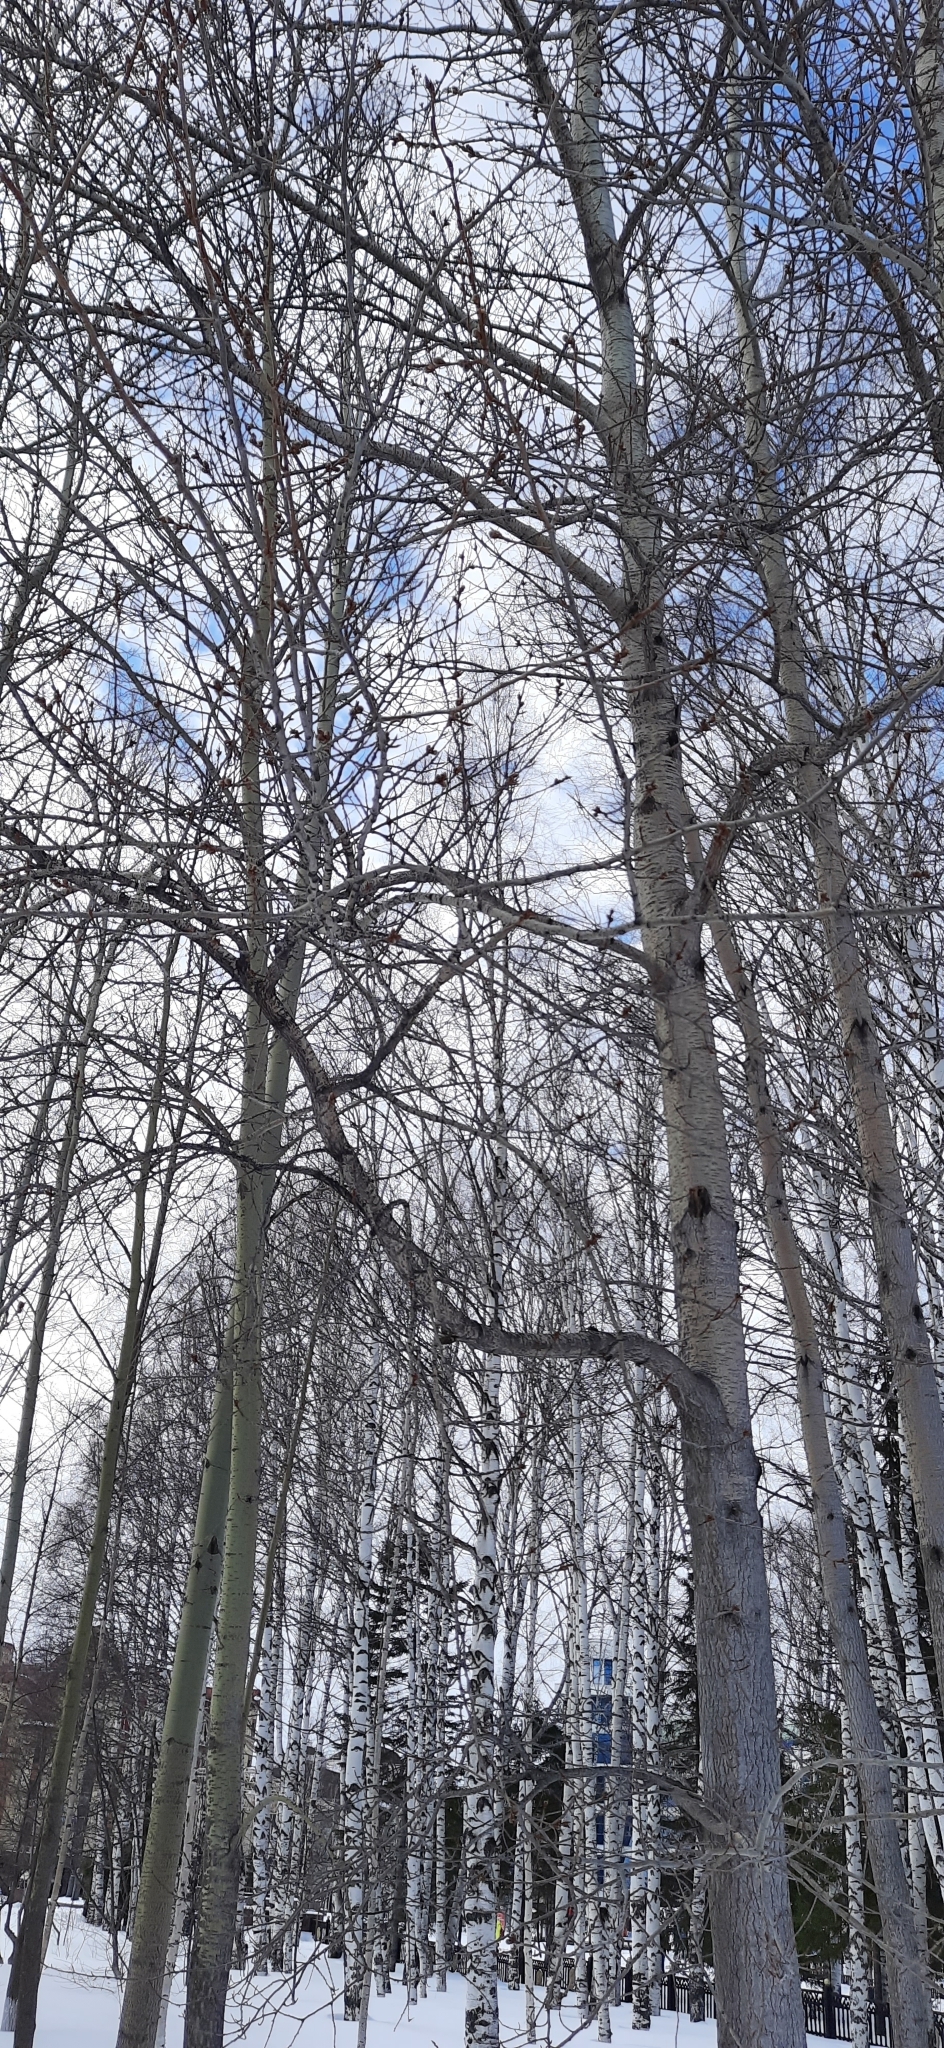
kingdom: Plantae
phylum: Tracheophyta
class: Magnoliopsida
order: Malpighiales
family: Salicaceae
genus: Populus
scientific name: Populus tremula
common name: European aspen
